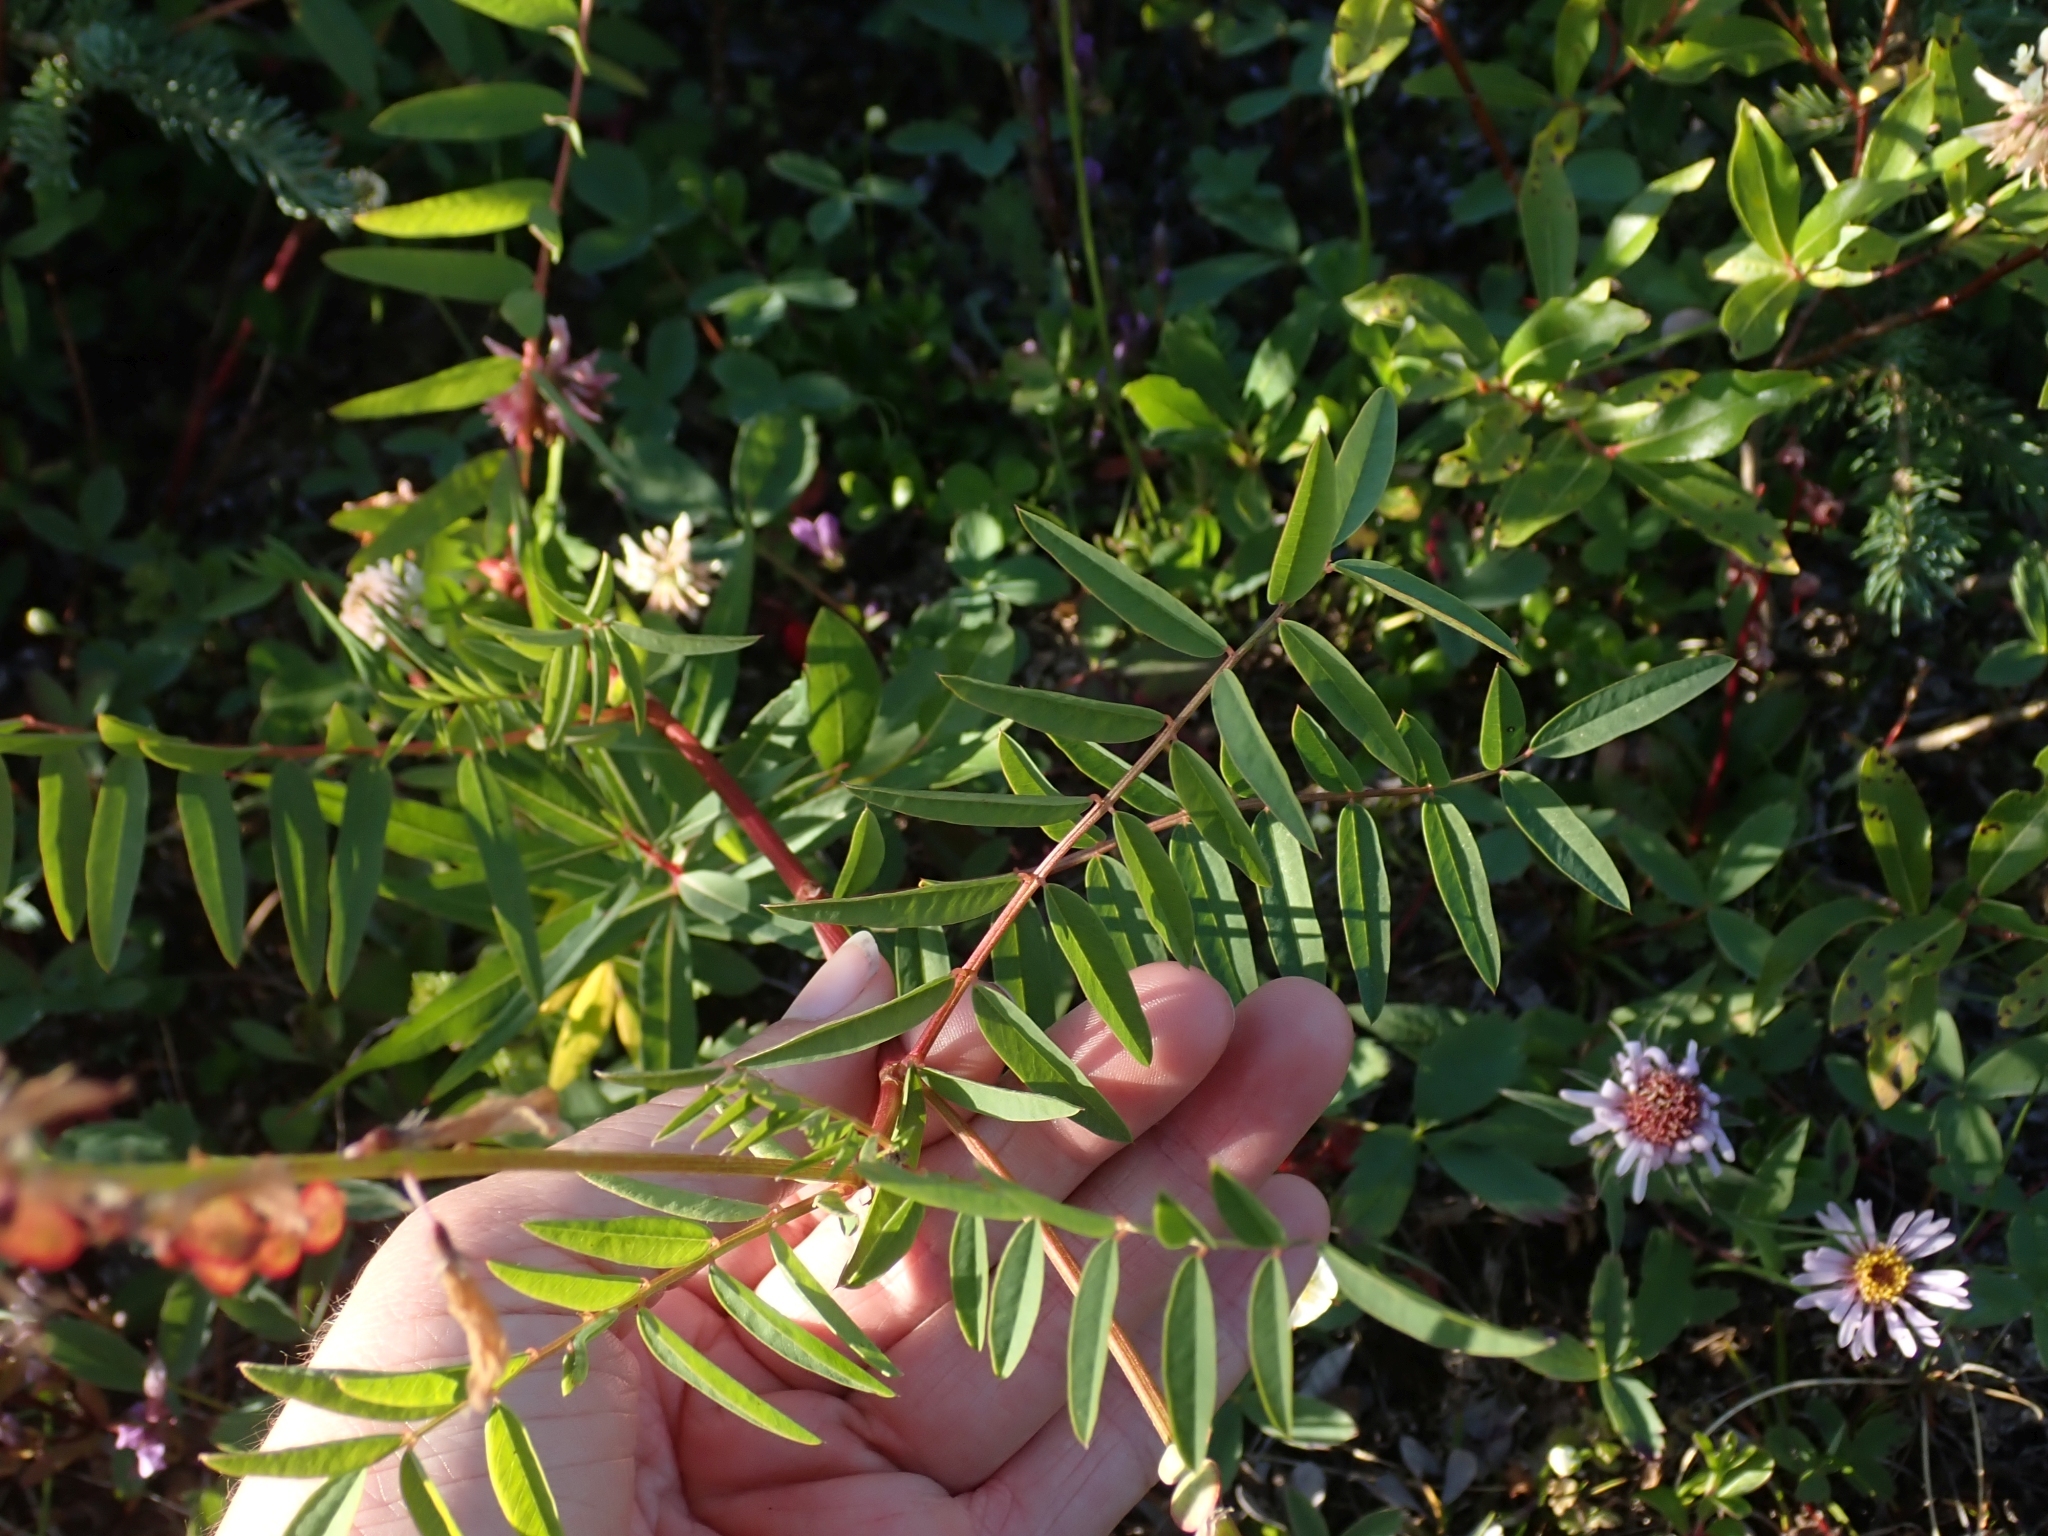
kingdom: Plantae
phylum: Tracheophyta
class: Magnoliopsida
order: Fabales
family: Fabaceae
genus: Hedysarum
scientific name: Hedysarum
